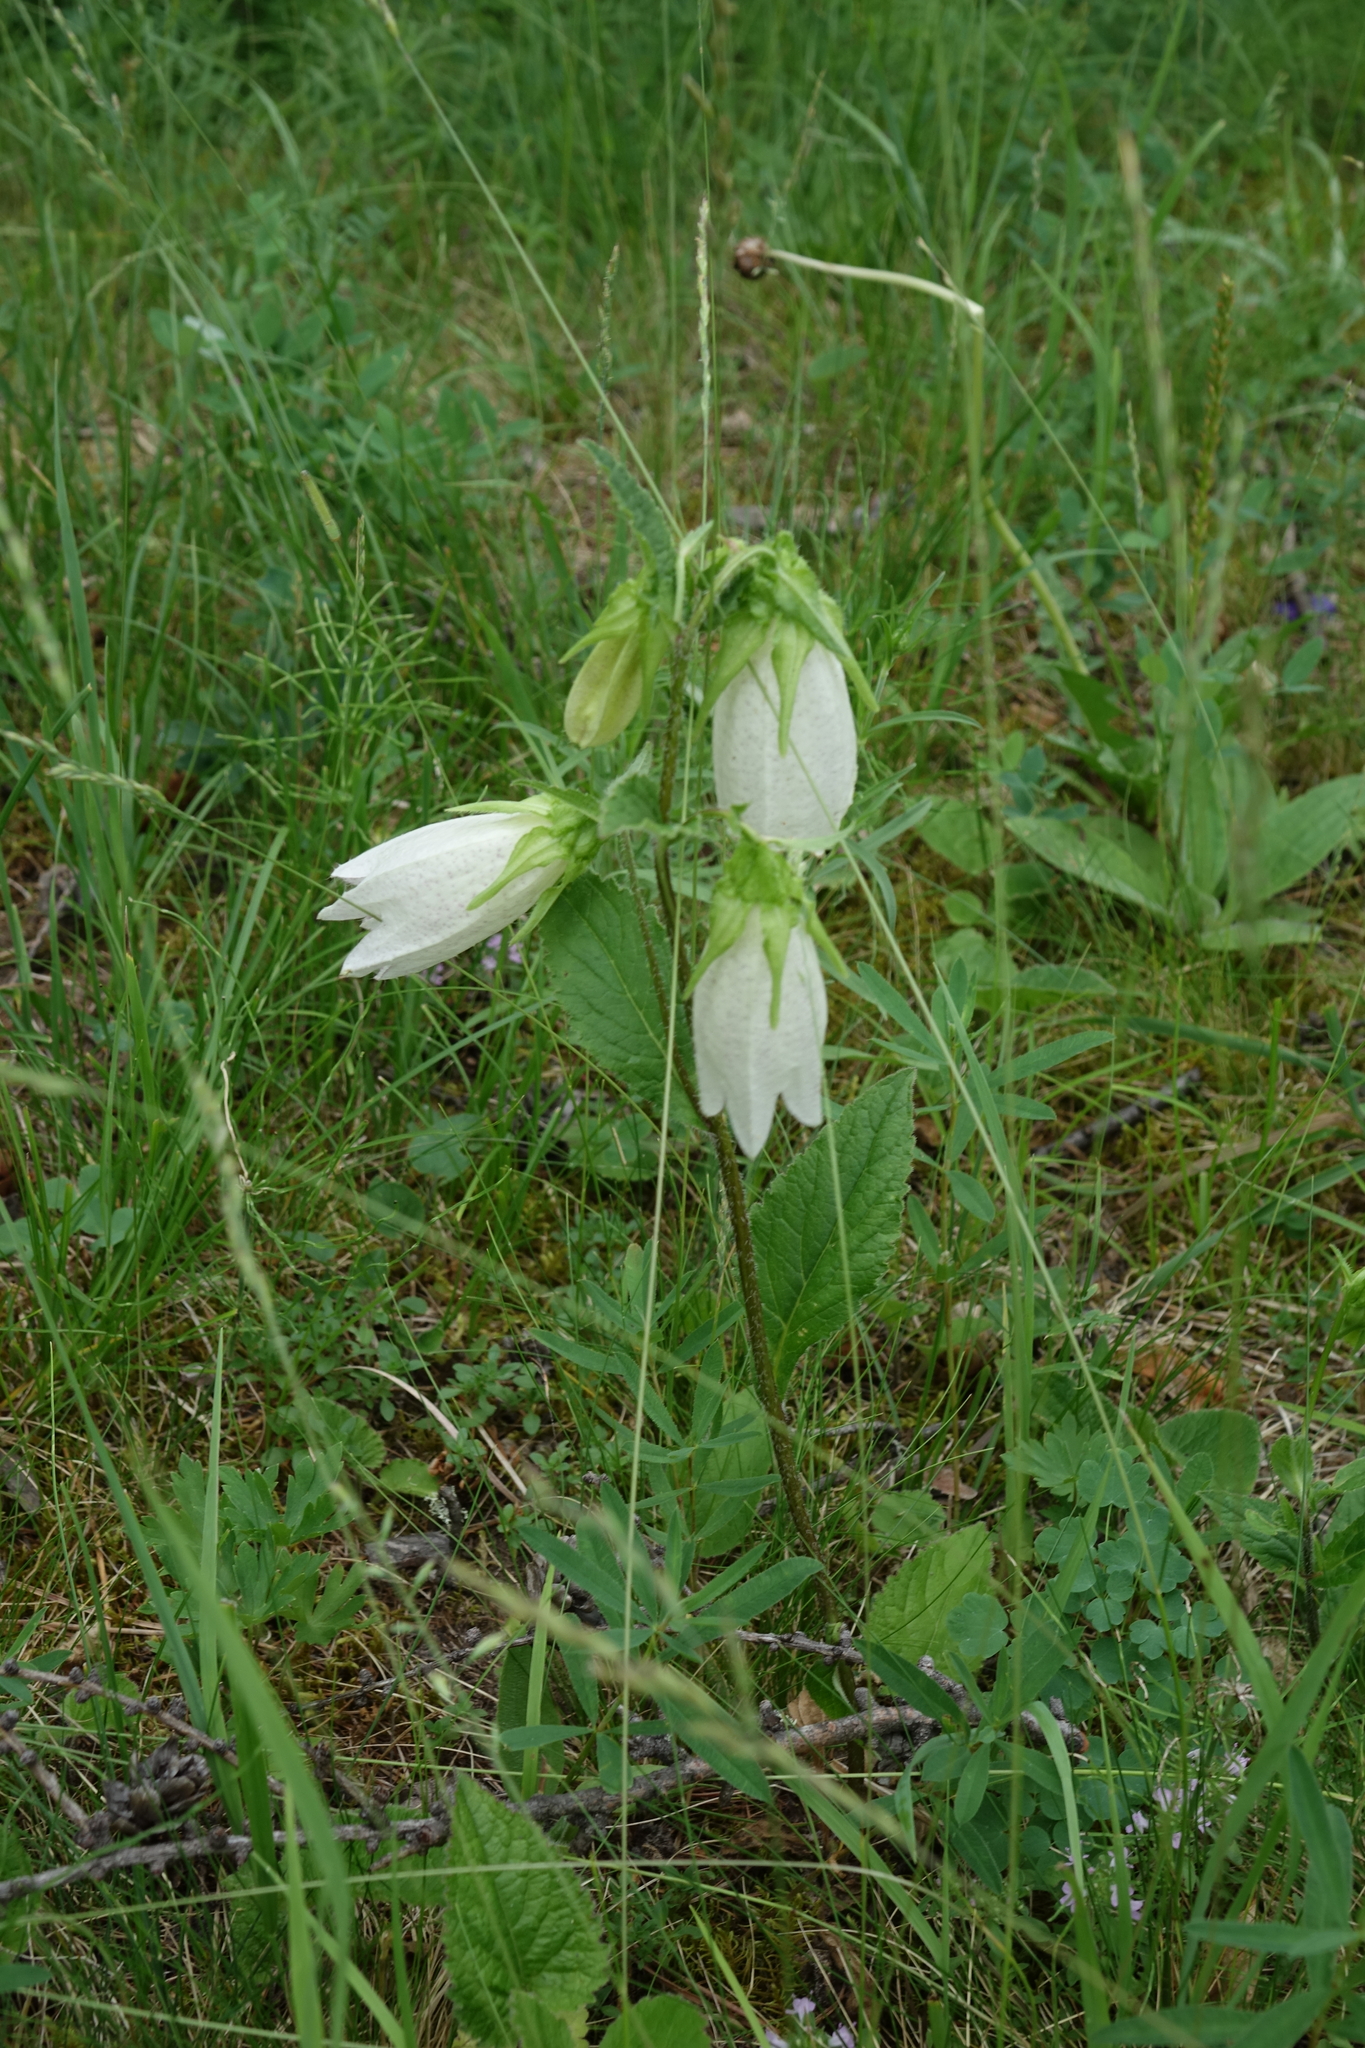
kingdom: Plantae
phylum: Tracheophyta
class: Magnoliopsida
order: Asterales
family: Campanulaceae
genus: Campanula
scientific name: Campanula punctata
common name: Spotted bellflower
